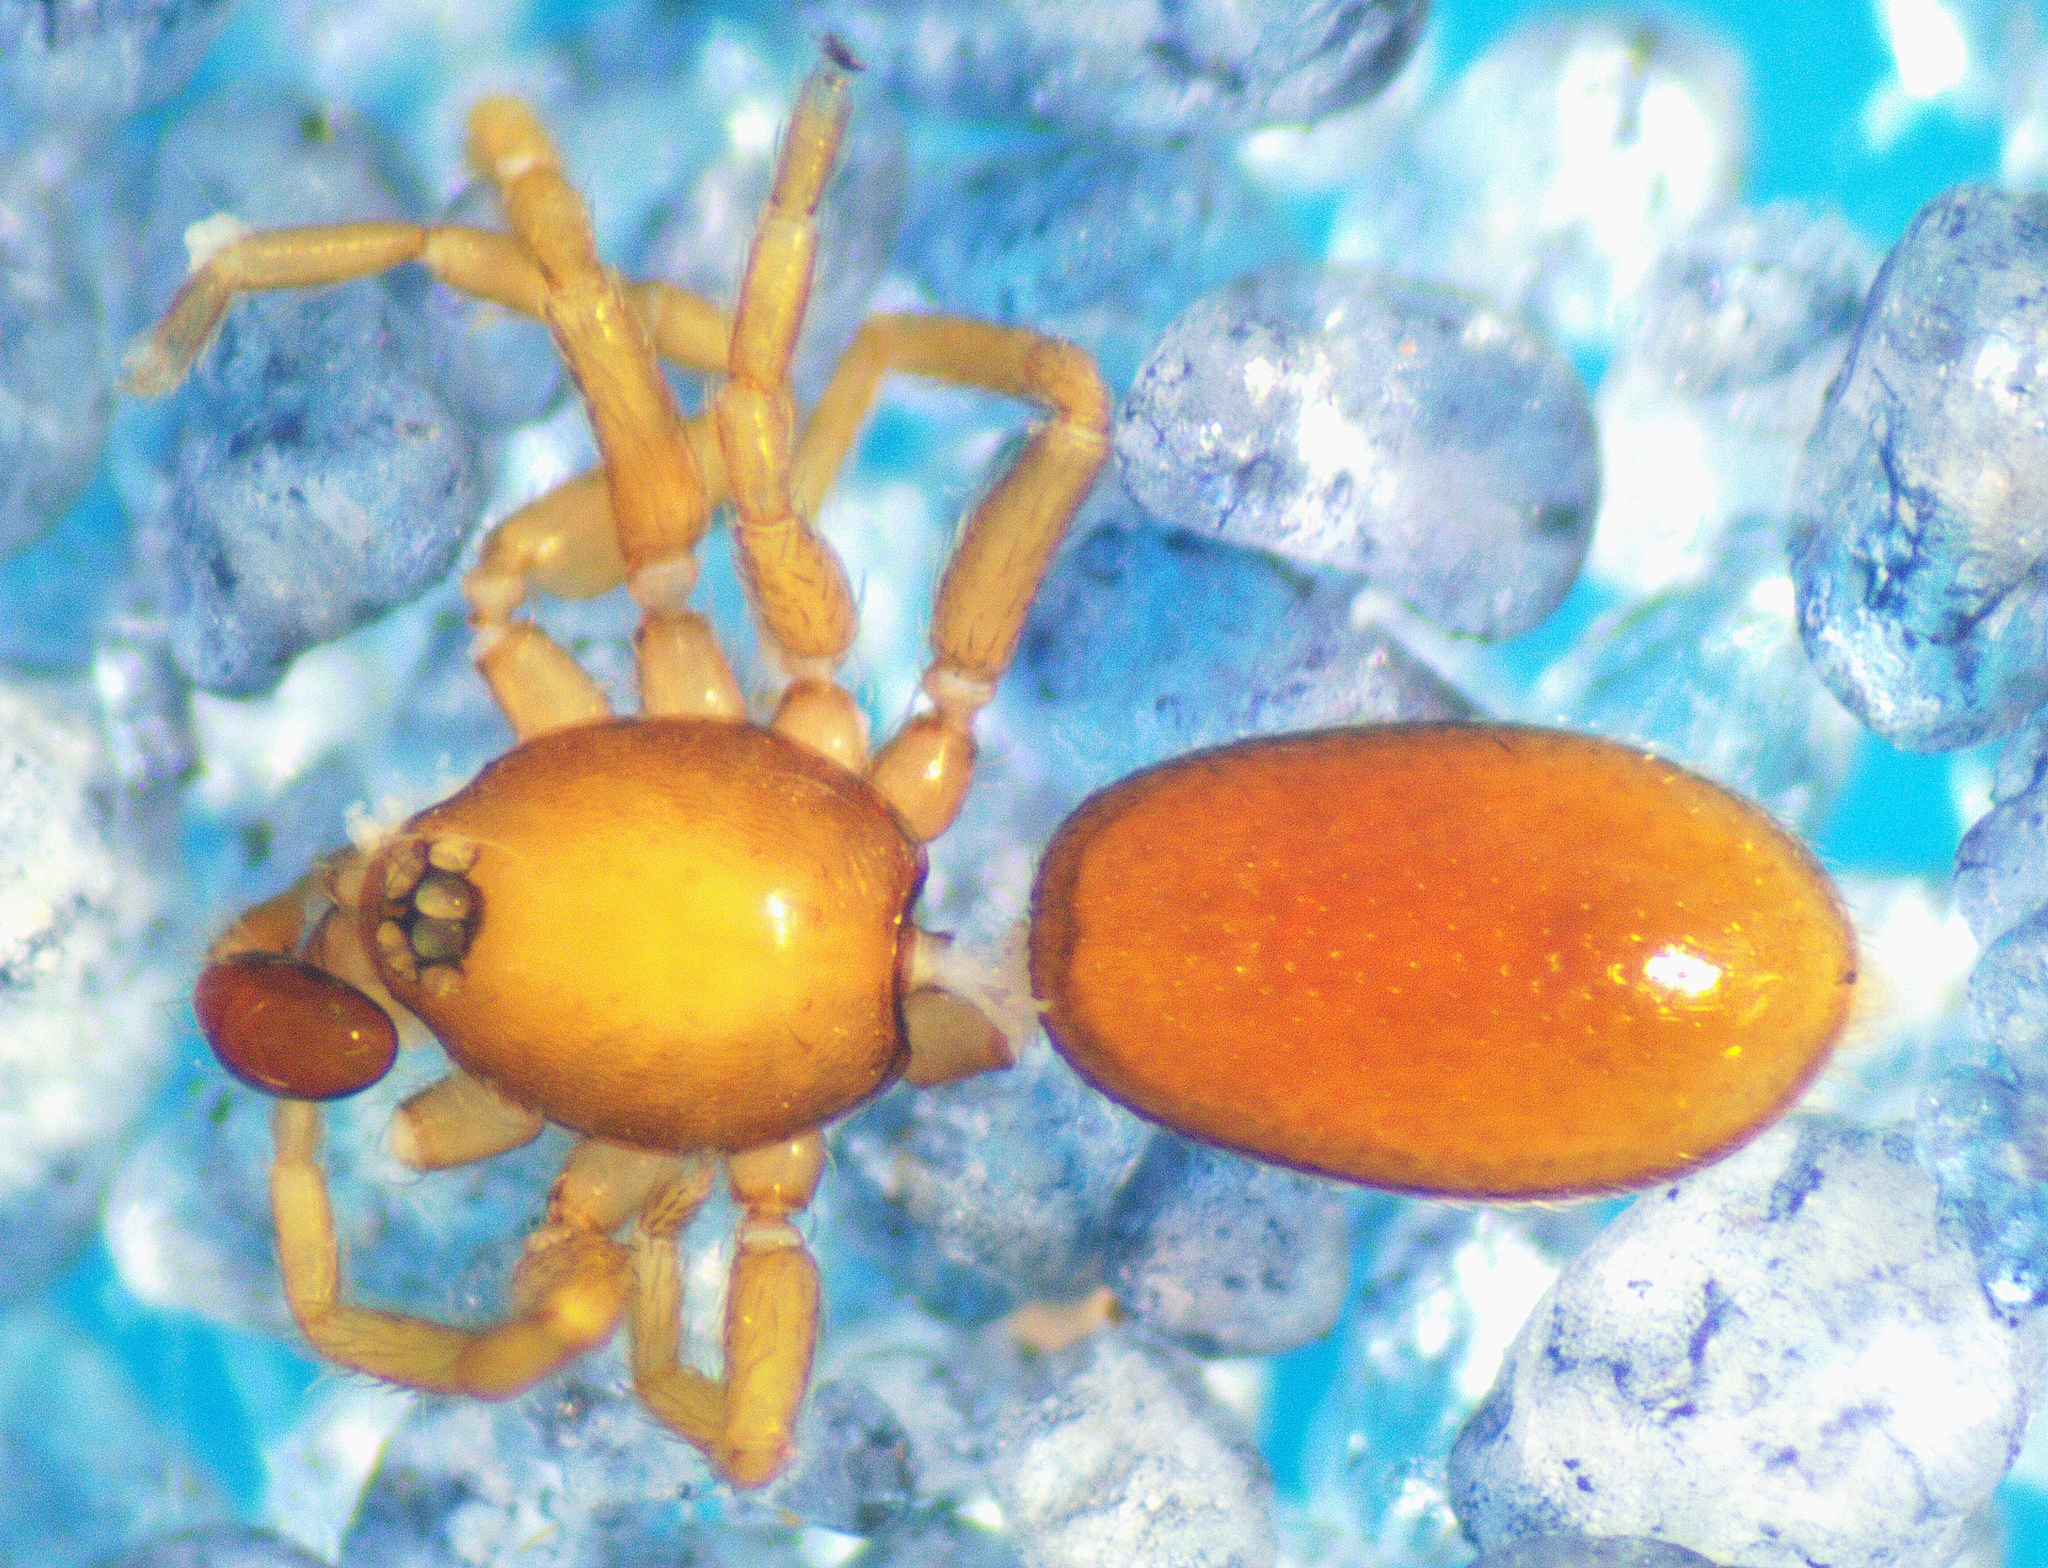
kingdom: Animalia
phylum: Arthropoda
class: Arachnida
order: Araneae
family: Oonopidae
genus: Opopaea
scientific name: Opopaea
